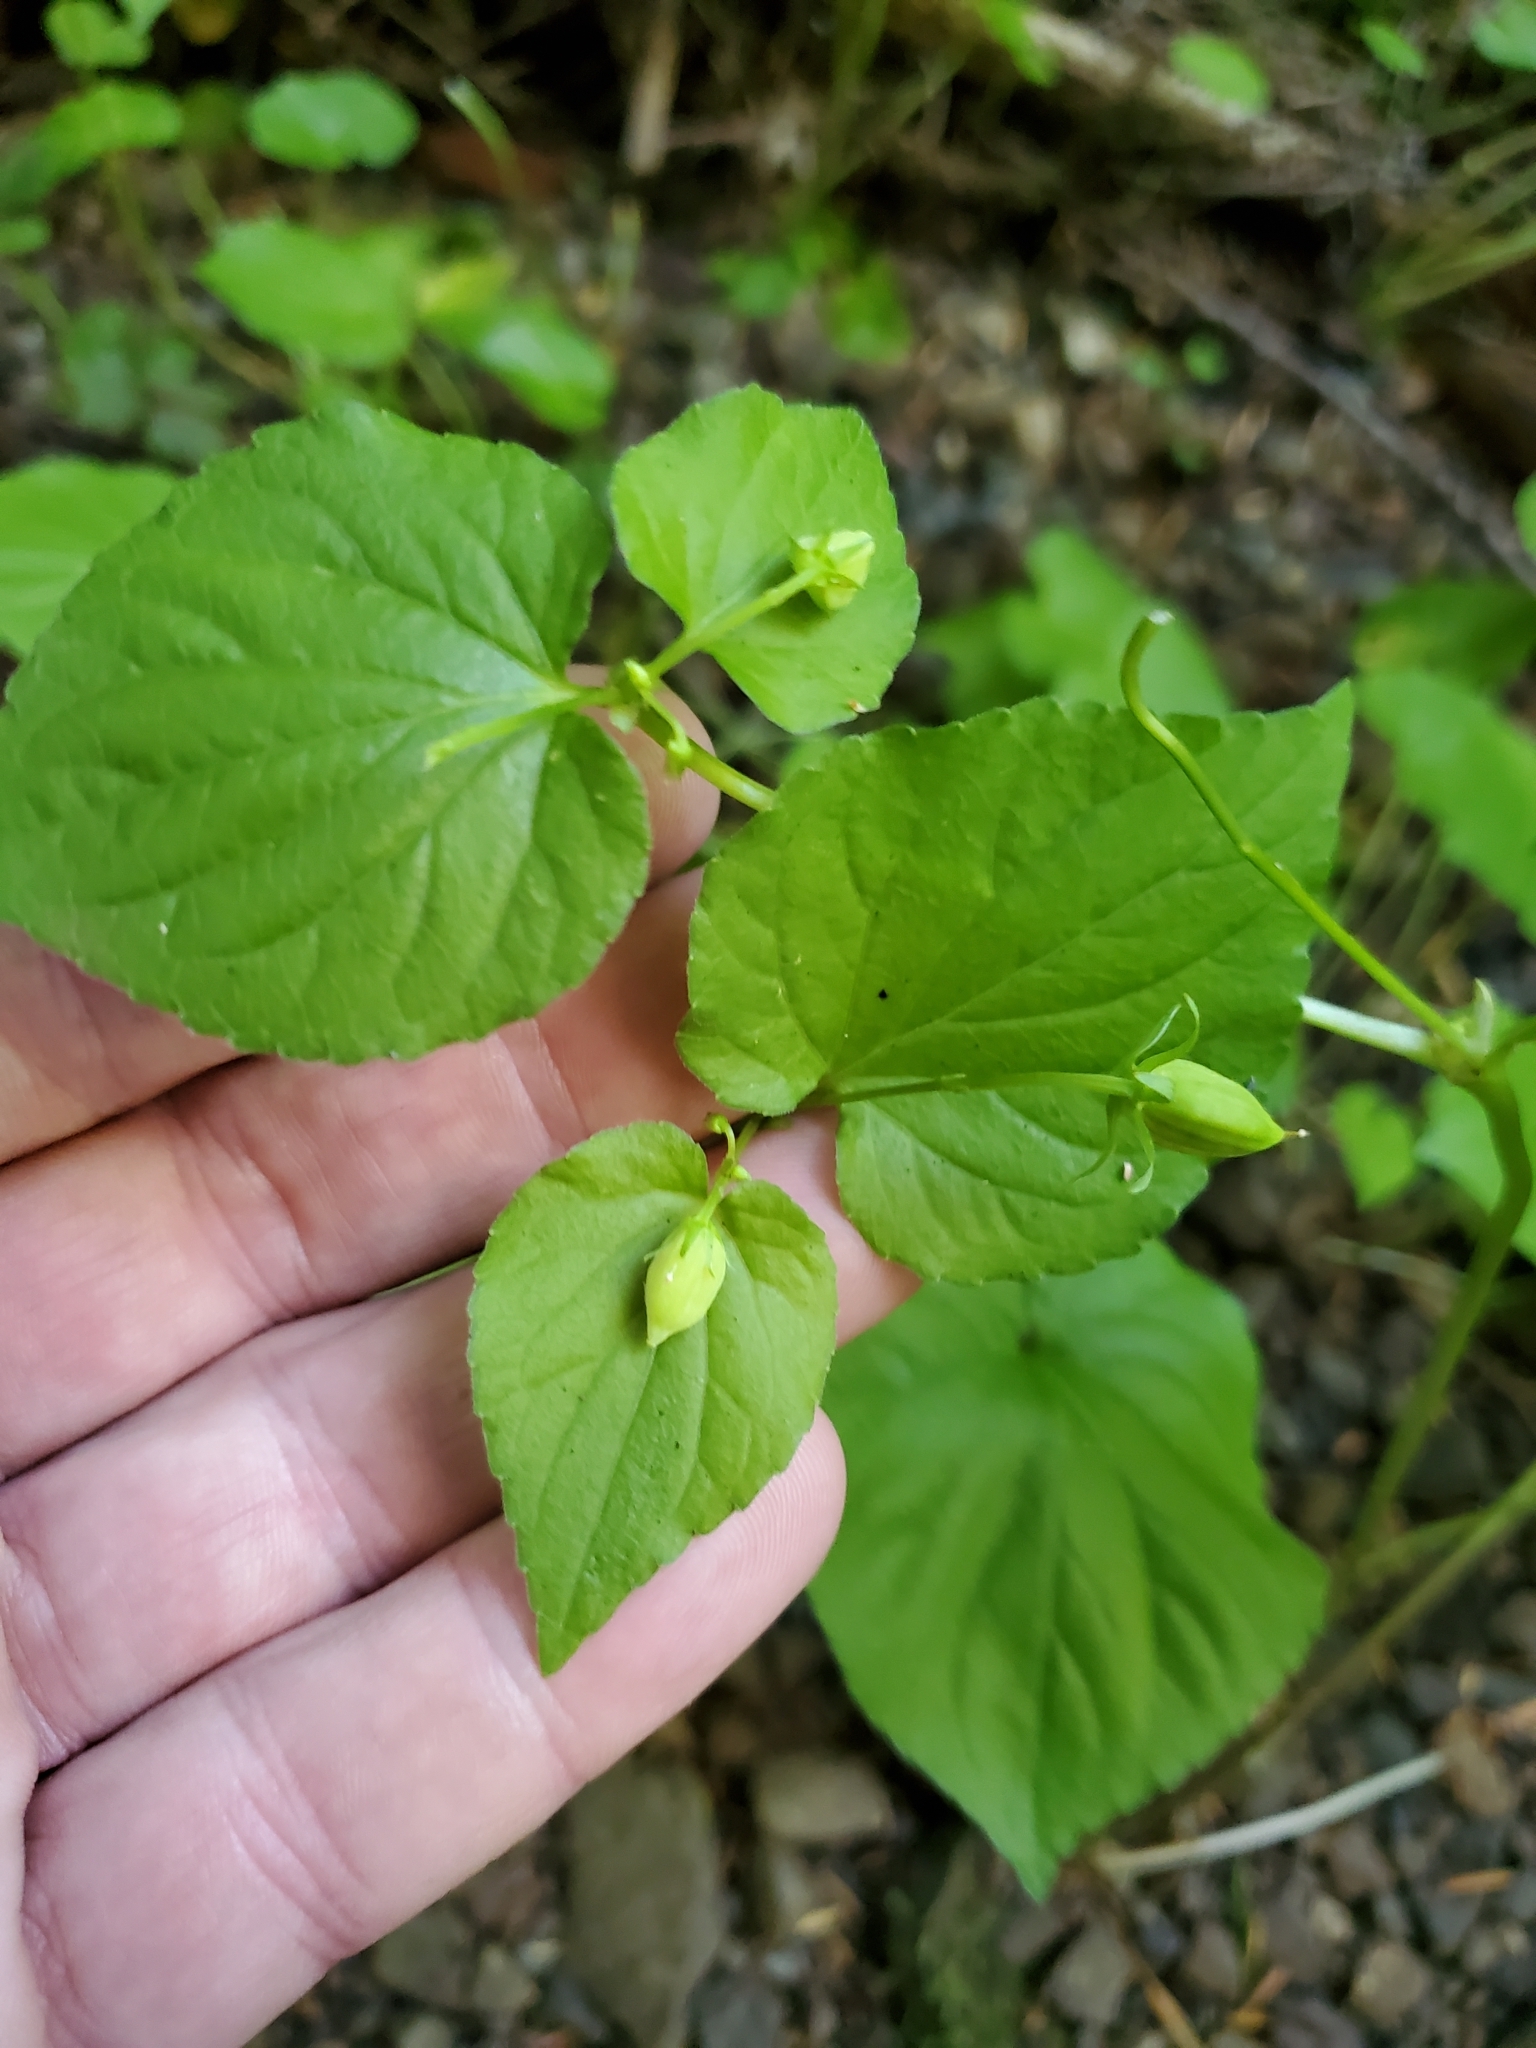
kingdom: Plantae
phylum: Tracheophyta
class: Magnoliopsida
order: Malpighiales
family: Violaceae
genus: Viola
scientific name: Viola glabella
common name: Stream violet
